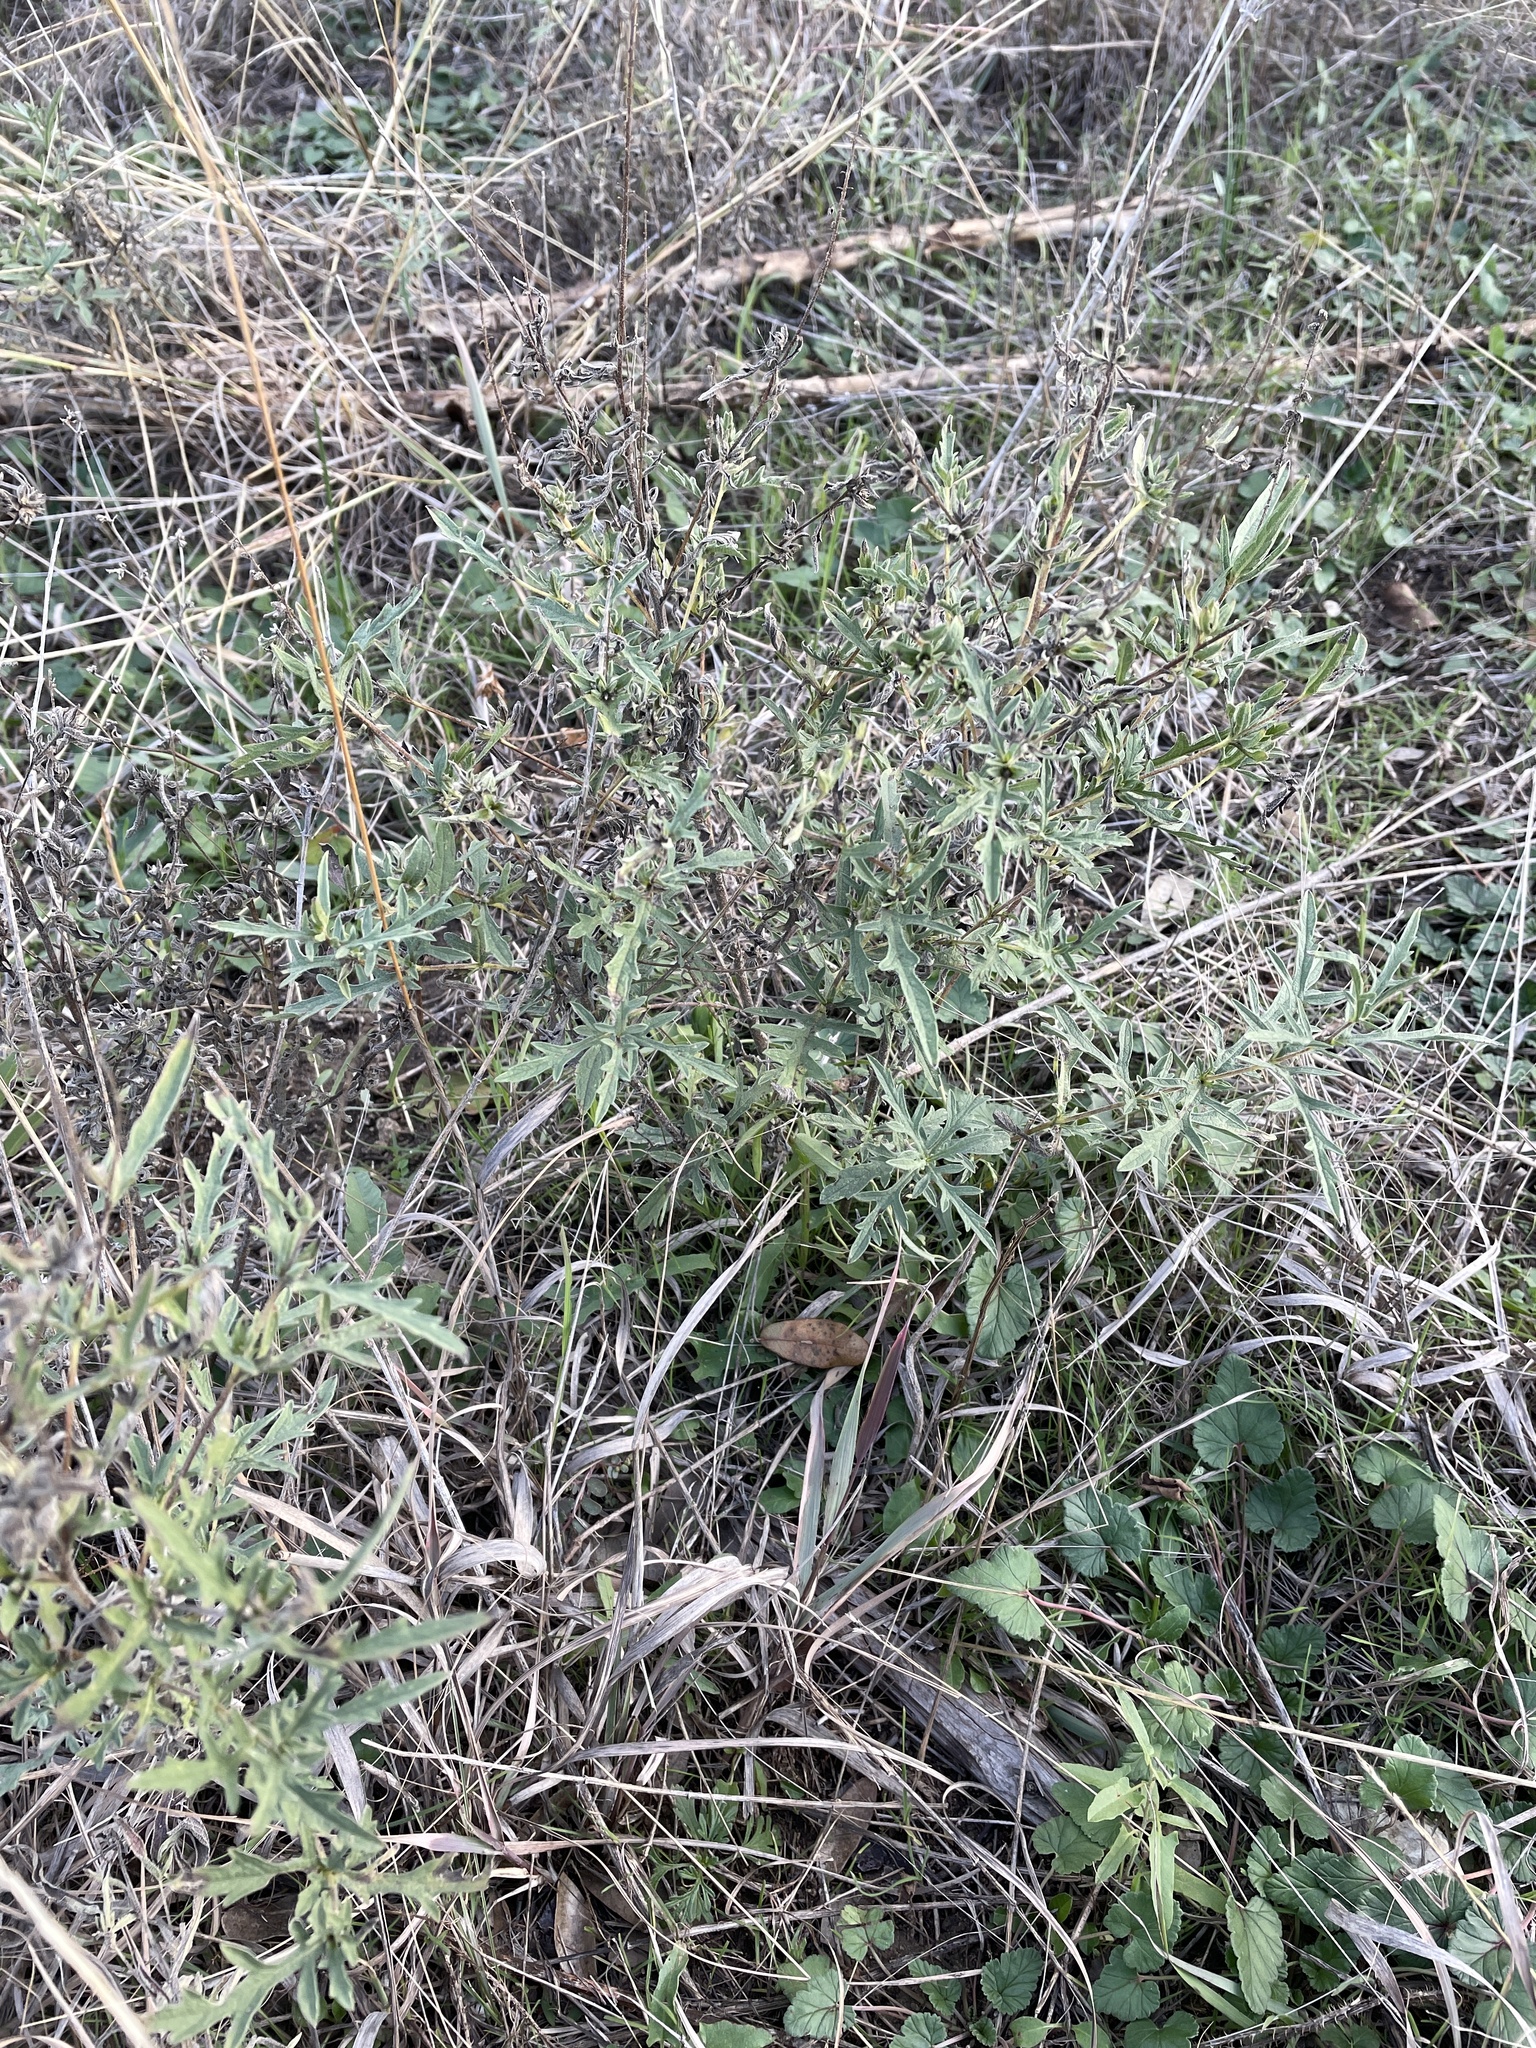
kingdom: Plantae
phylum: Tracheophyta
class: Magnoliopsida
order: Asterales
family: Asteraceae
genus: Ambrosia
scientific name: Ambrosia psilostachya
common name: Perennial ragweed
